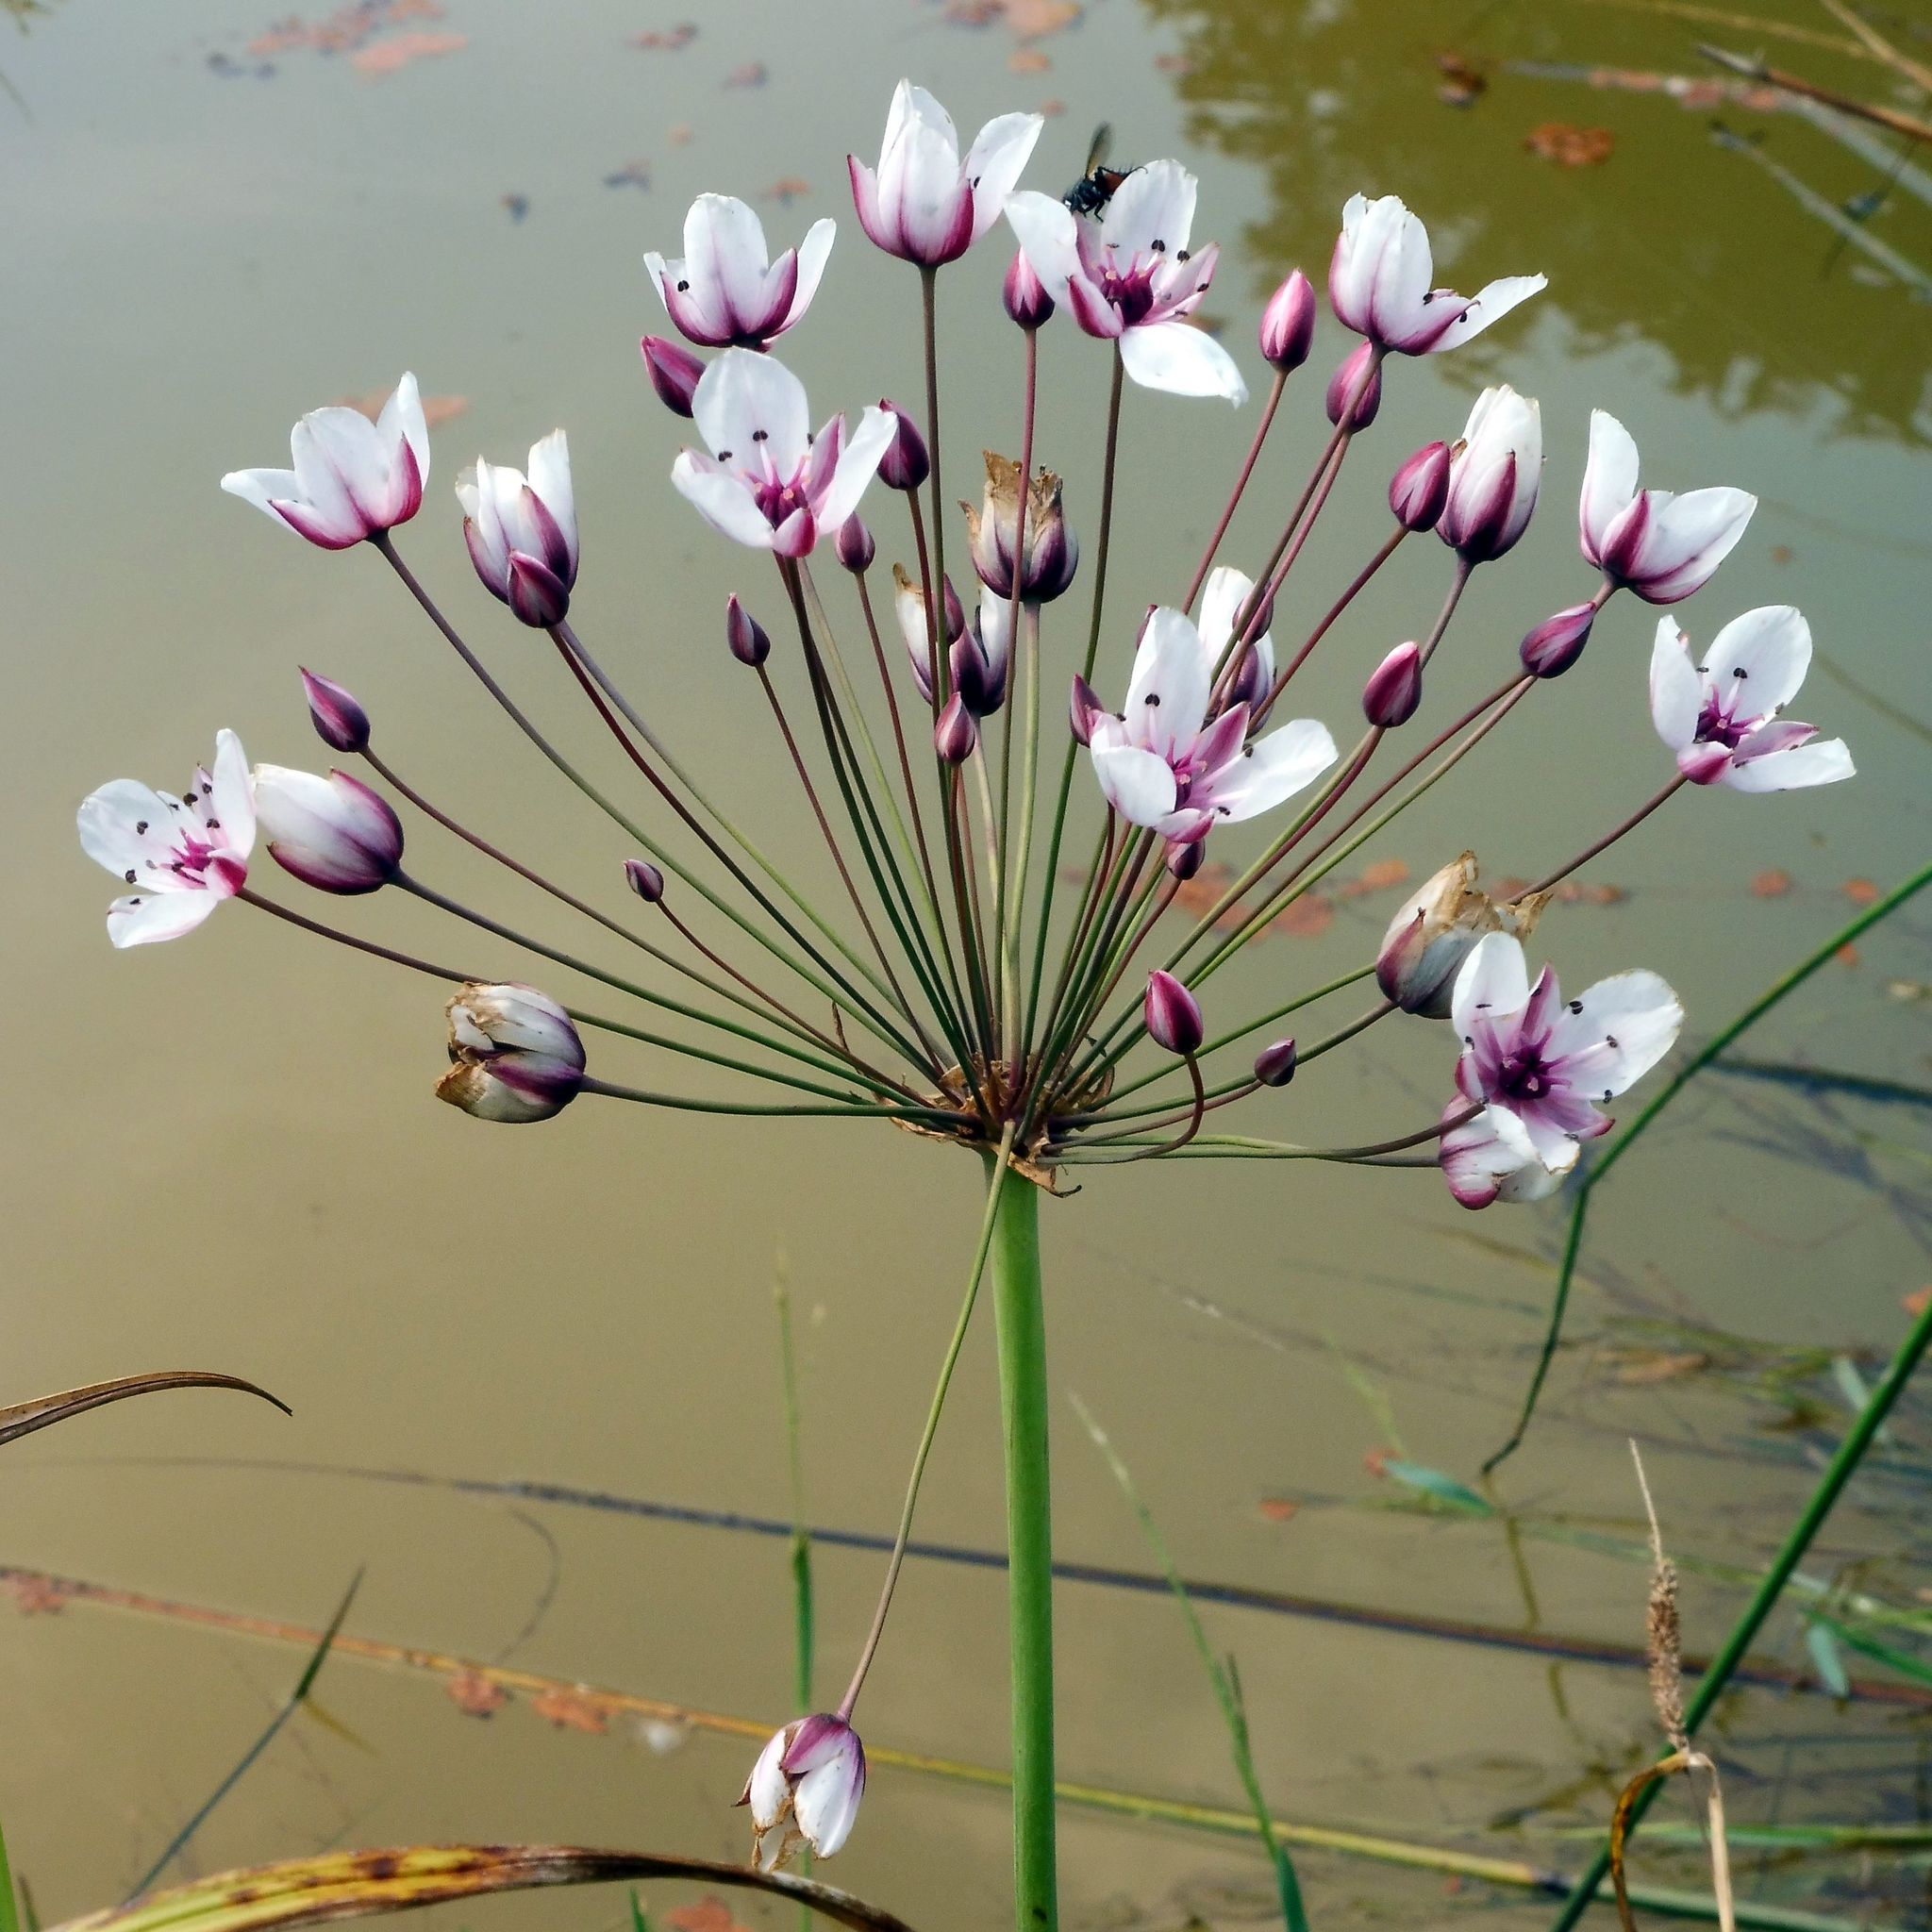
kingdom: Plantae
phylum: Tracheophyta
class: Liliopsida
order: Alismatales
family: Butomaceae
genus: Butomus
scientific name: Butomus umbellatus
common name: Flowering-rush
